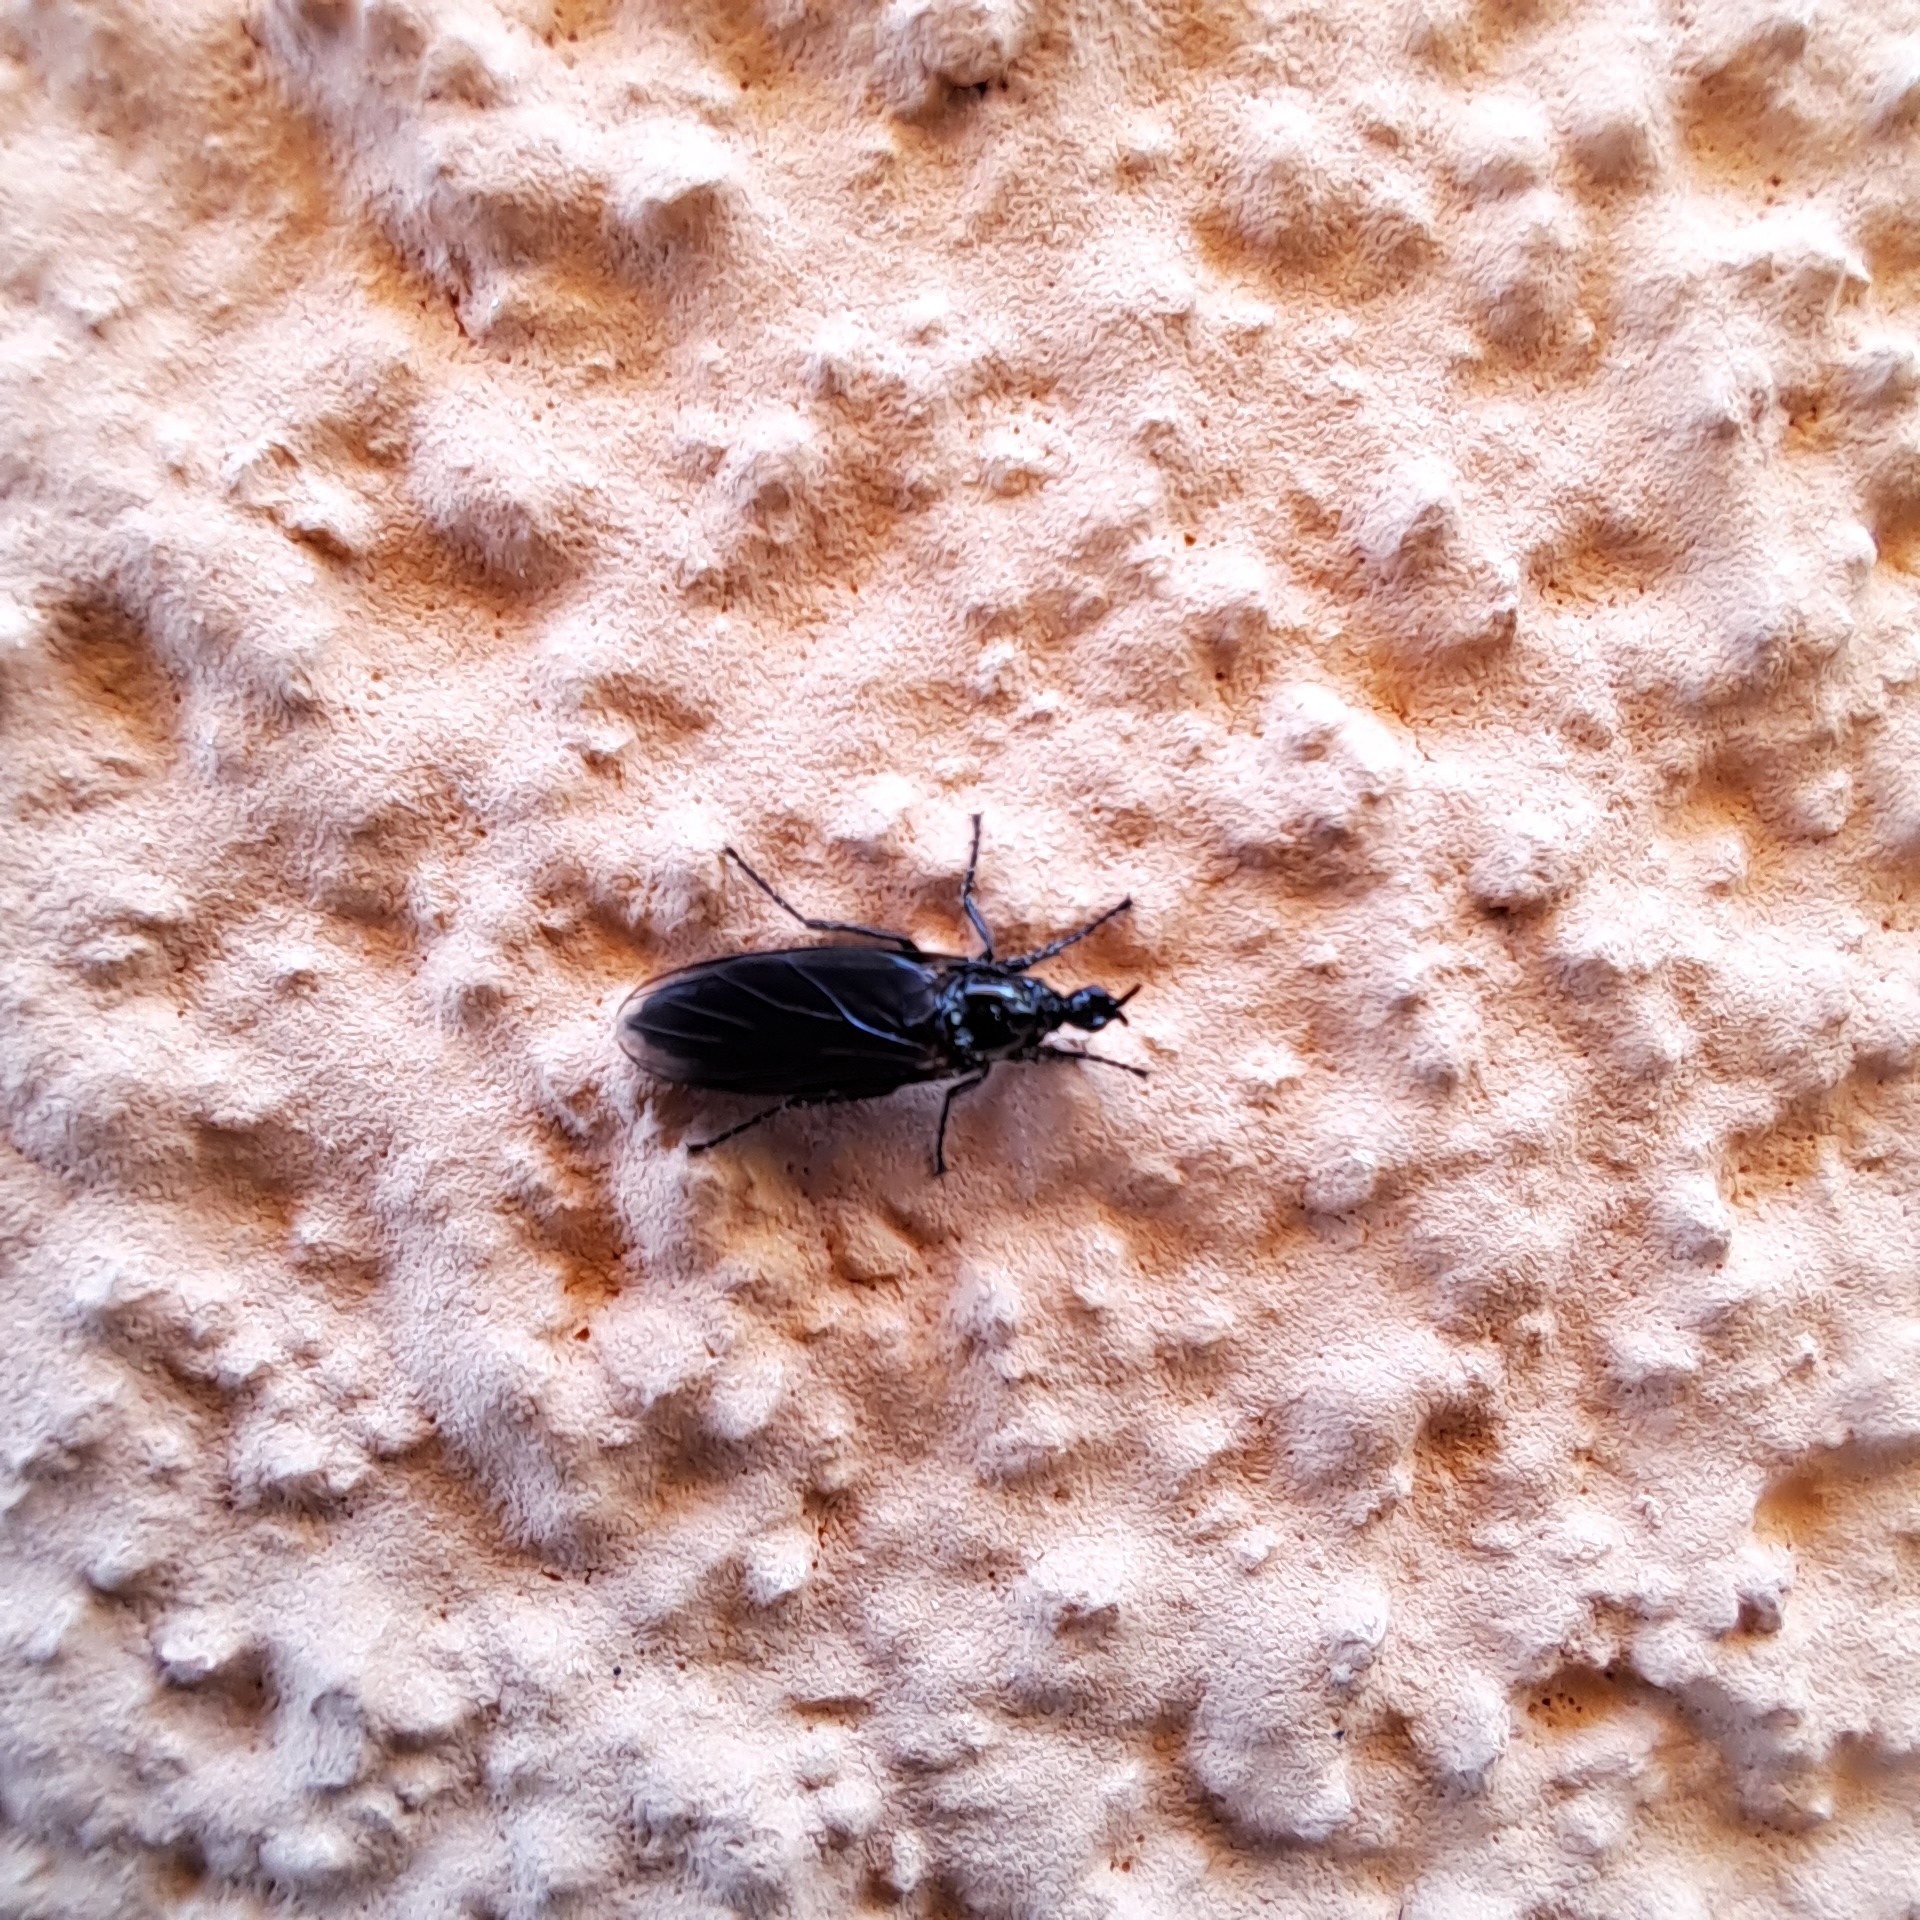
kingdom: Animalia
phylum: Arthropoda
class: Insecta
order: Diptera
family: Bibionidae
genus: Dilophus
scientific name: Dilophus febrilis
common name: Fever fly
